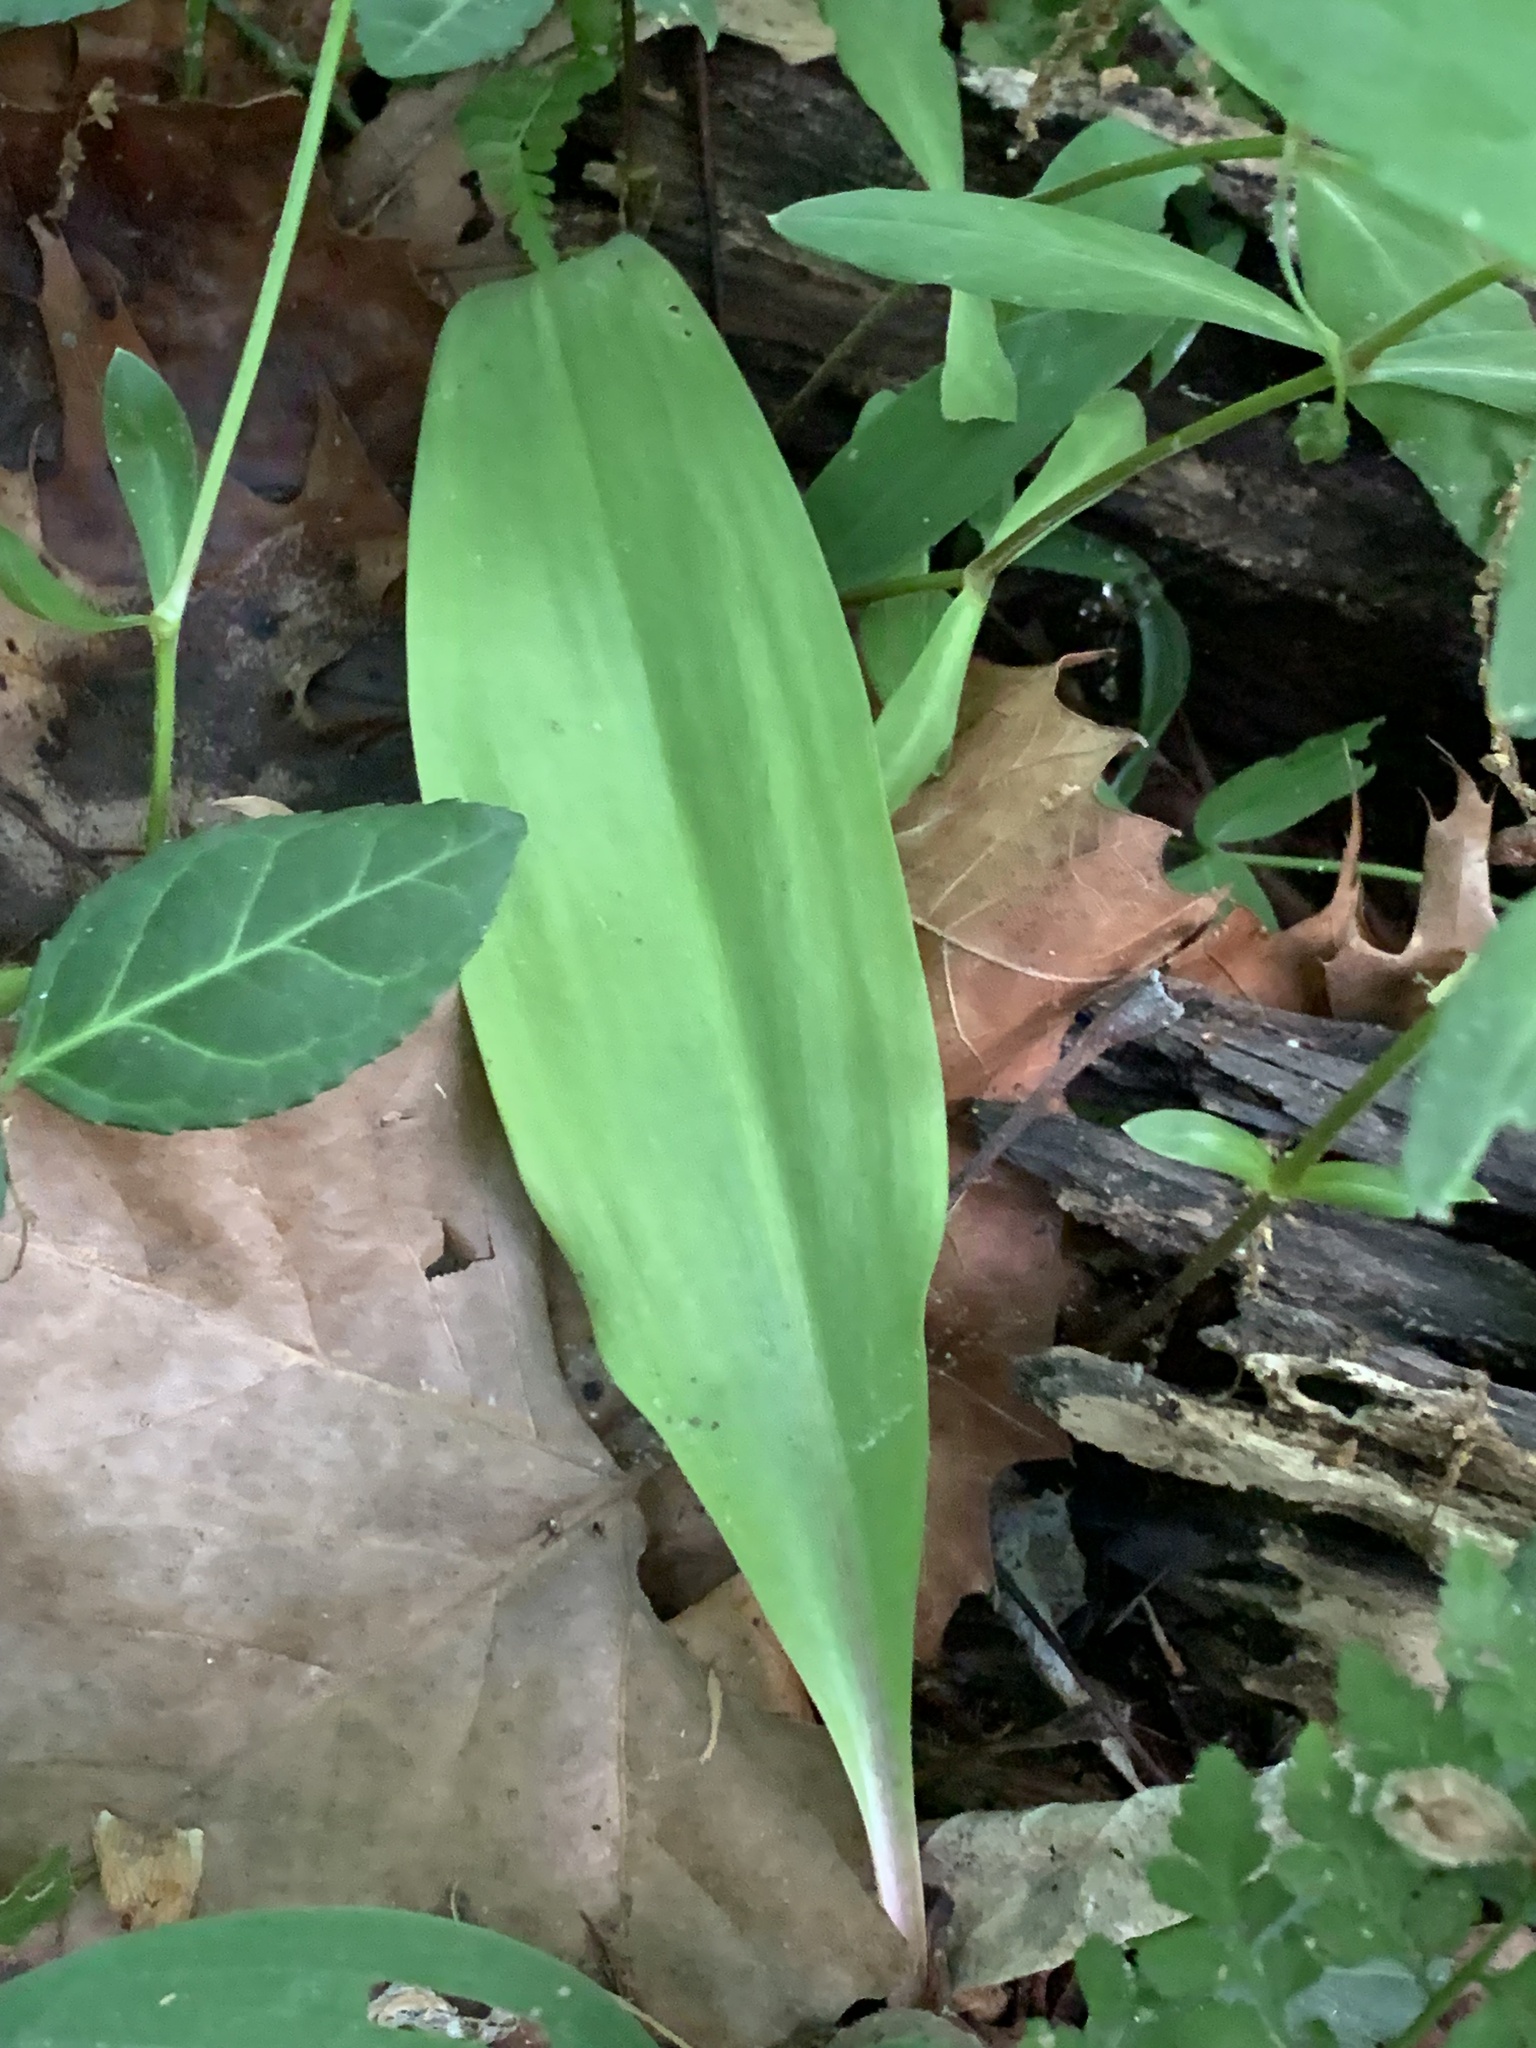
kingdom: Plantae
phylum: Tracheophyta
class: Liliopsida
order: Asparagales
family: Amaryllidaceae
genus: Allium
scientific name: Allium tricoccum
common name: Ramp
